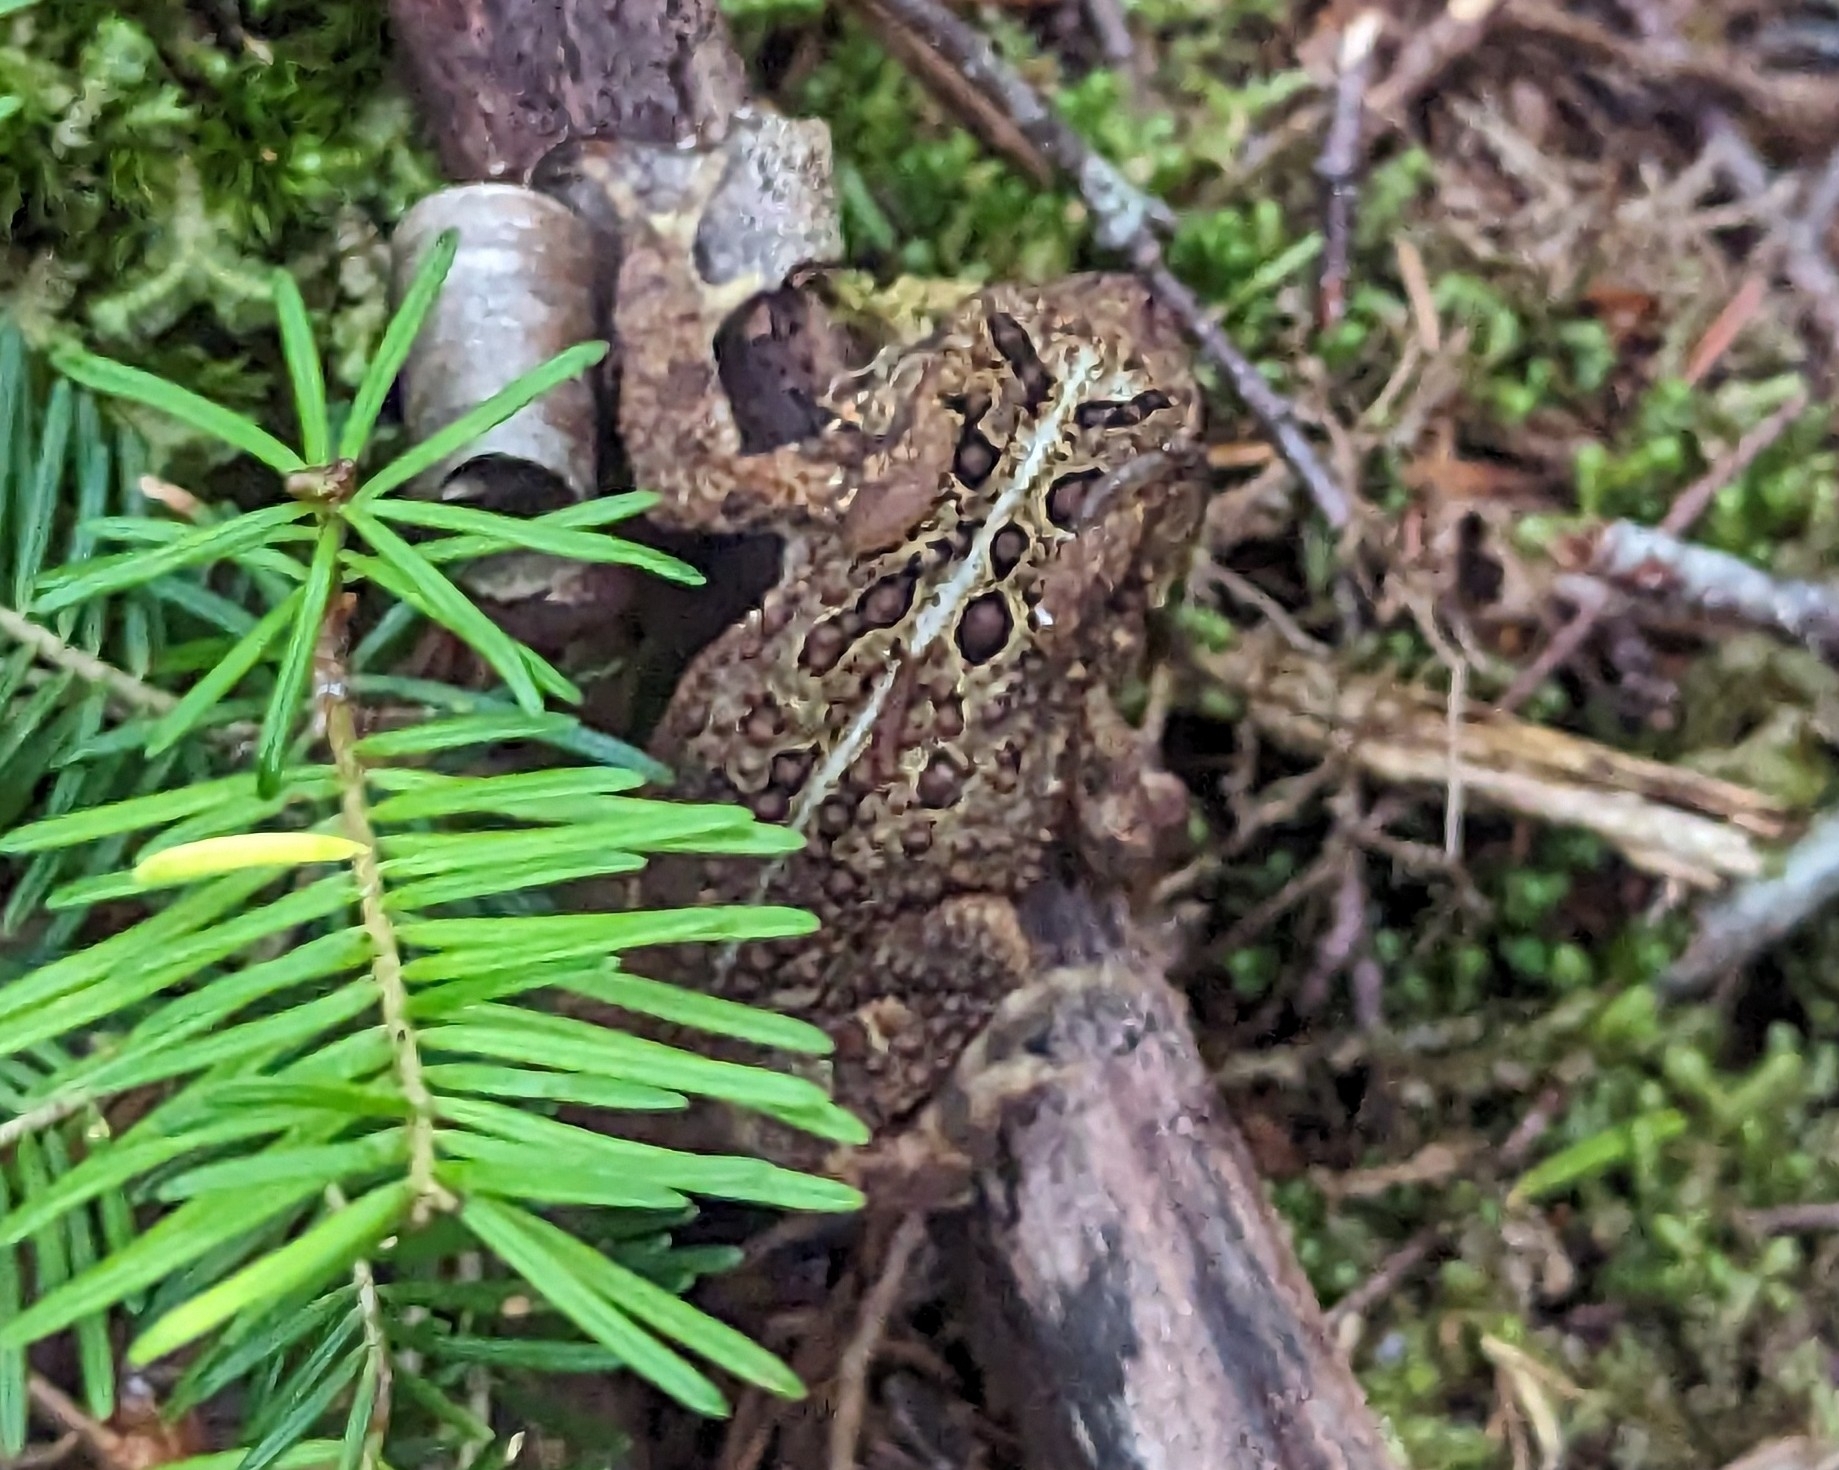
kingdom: Animalia
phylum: Chordata
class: Amphibia
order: Anura
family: Bufonidae
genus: Anaxyrus
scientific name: Anaxyrus americanus
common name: American toad
